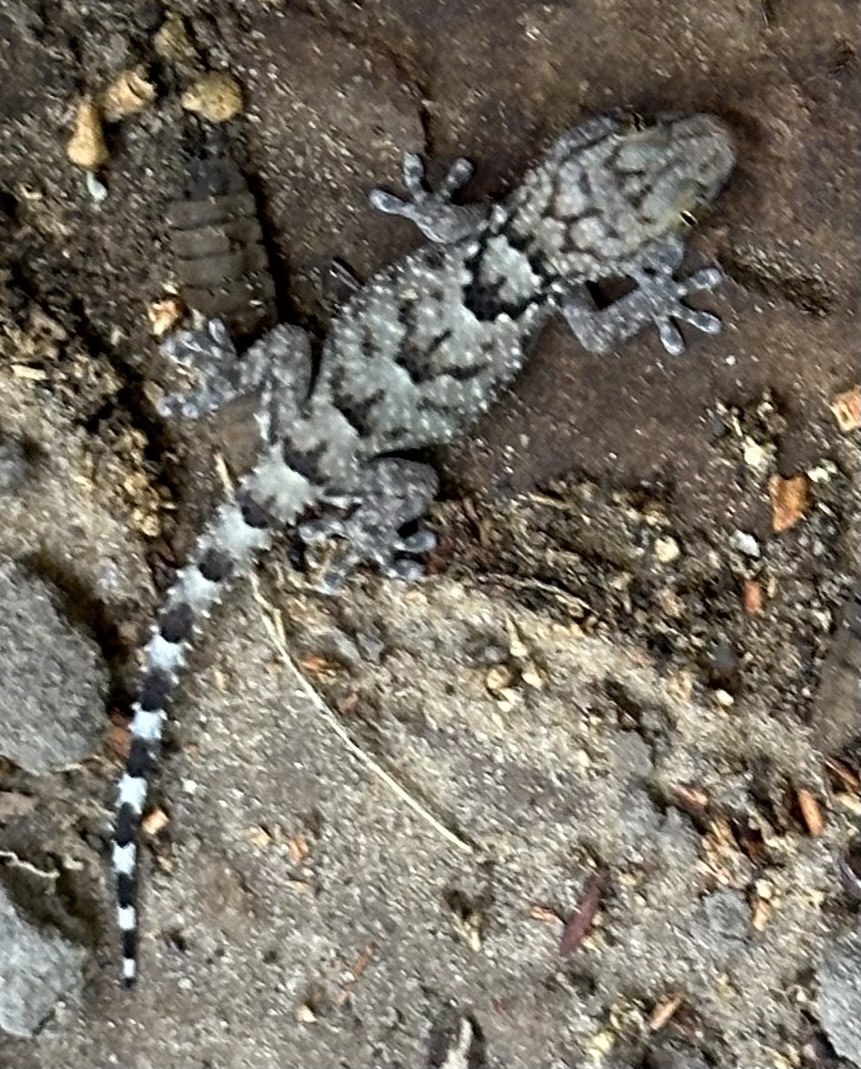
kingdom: Animalia
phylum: Chordata
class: Squamata
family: Gekkonidae
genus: Chondrodactylus
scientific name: Chondrodactylus laevigatus
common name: Fischer's thick-toed gecko
